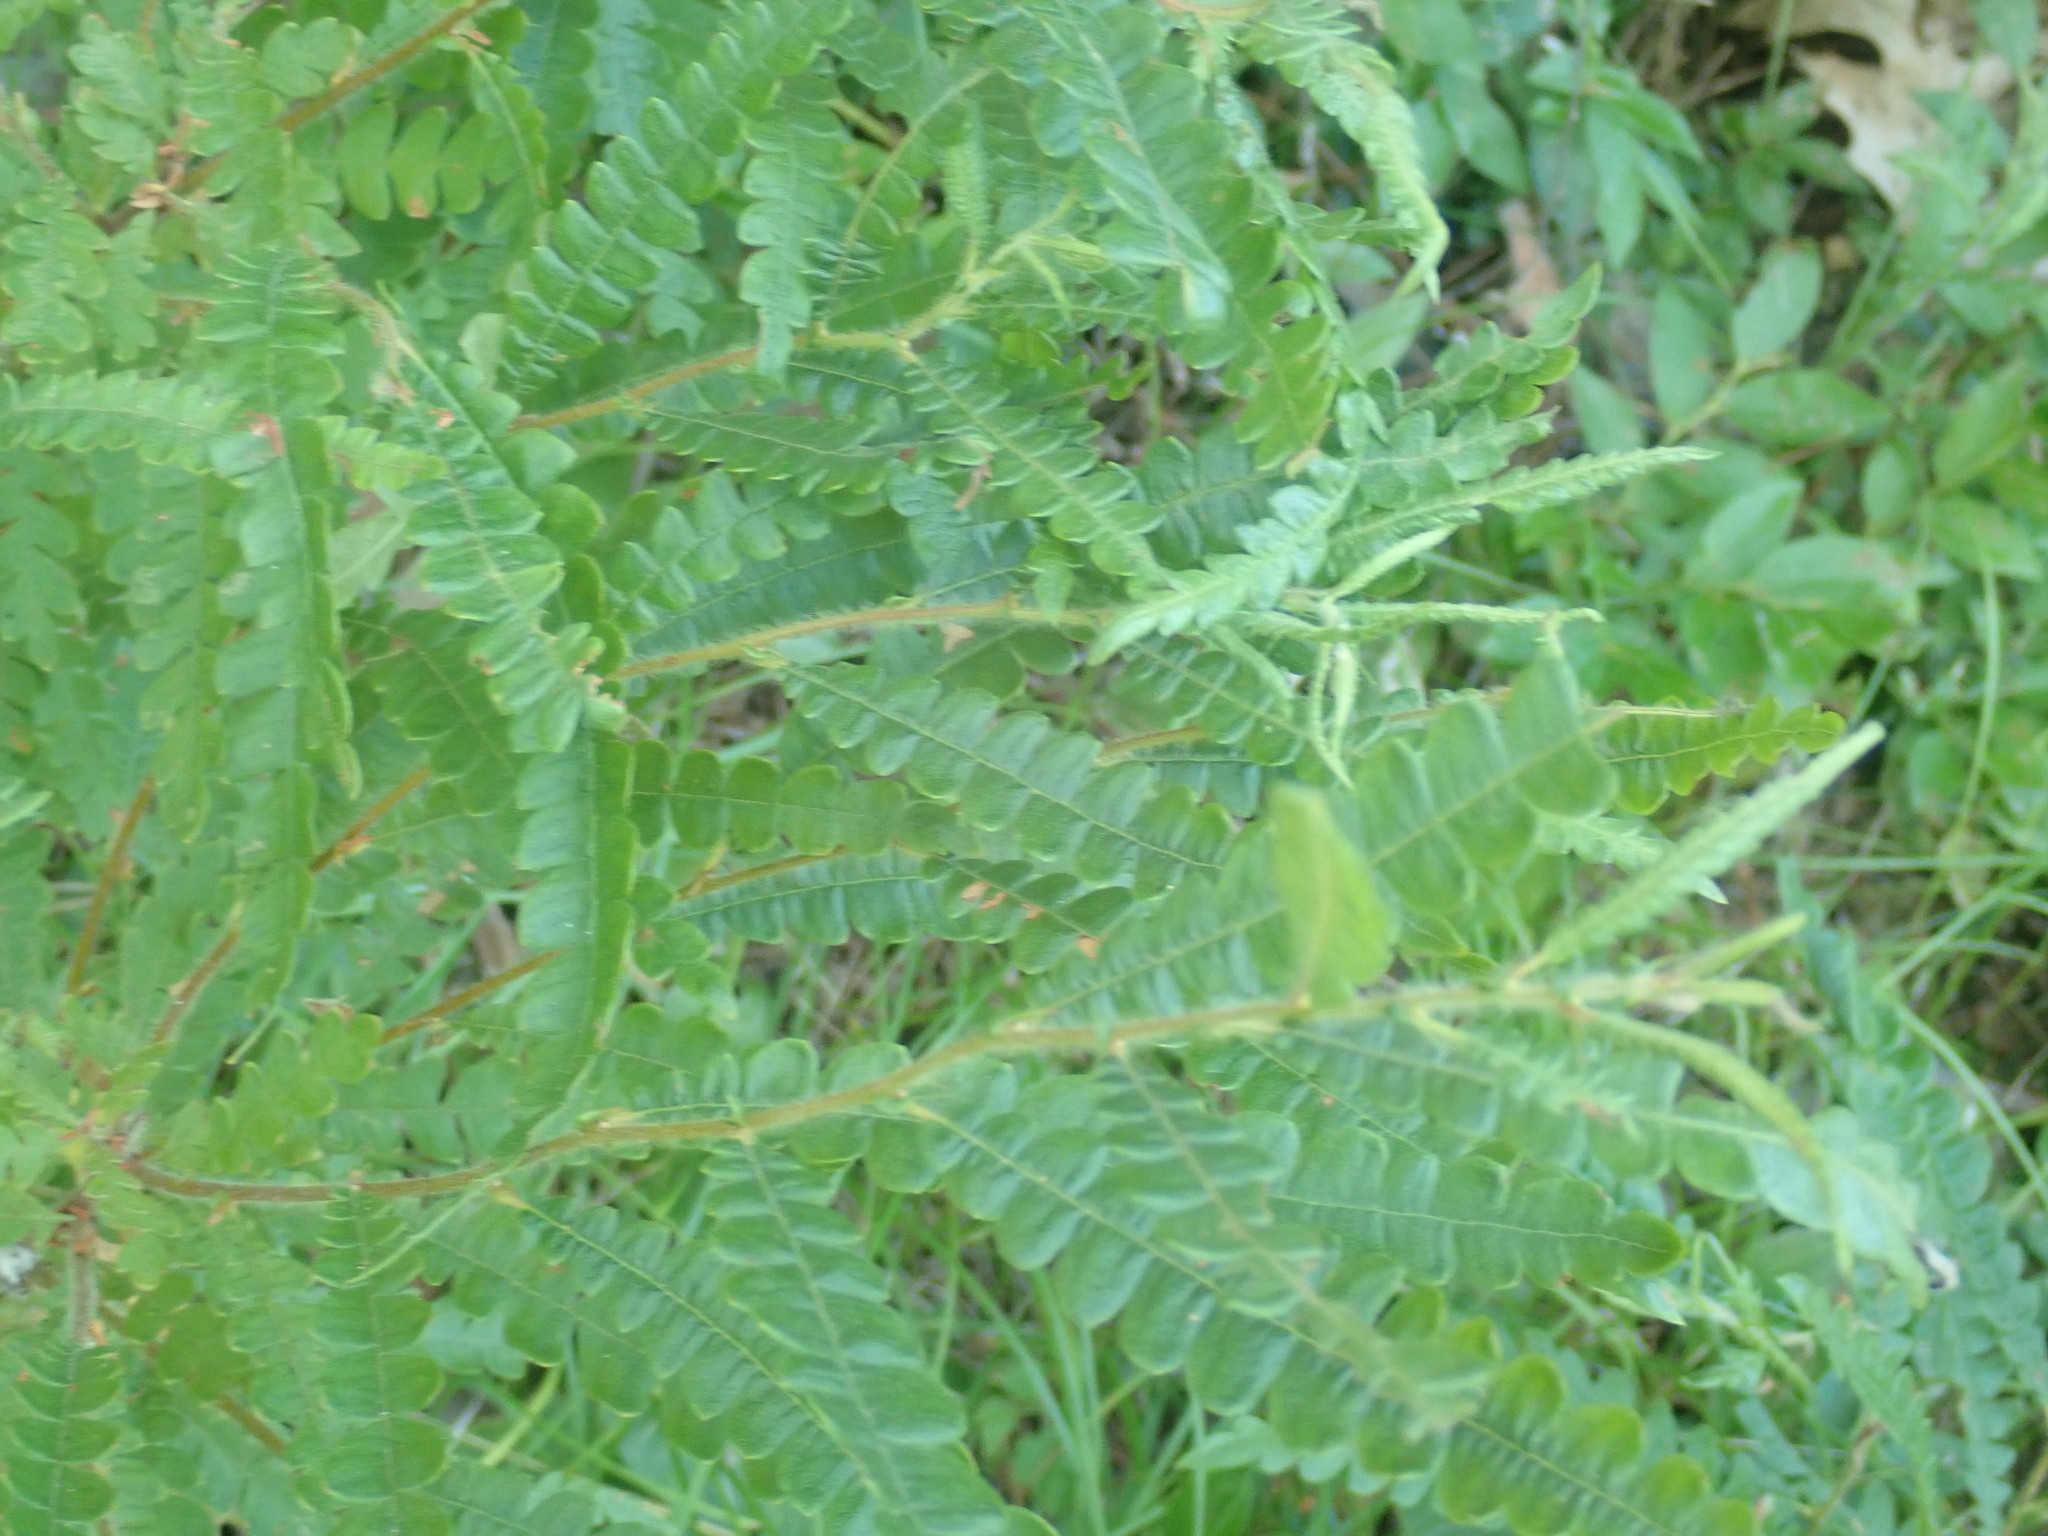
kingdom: Plantae
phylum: Tracheophyta
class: Magnoliopsida
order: Fagales
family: Myricaceae
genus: Comptonia
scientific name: Comptonia peregrina
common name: Sweet-fern
